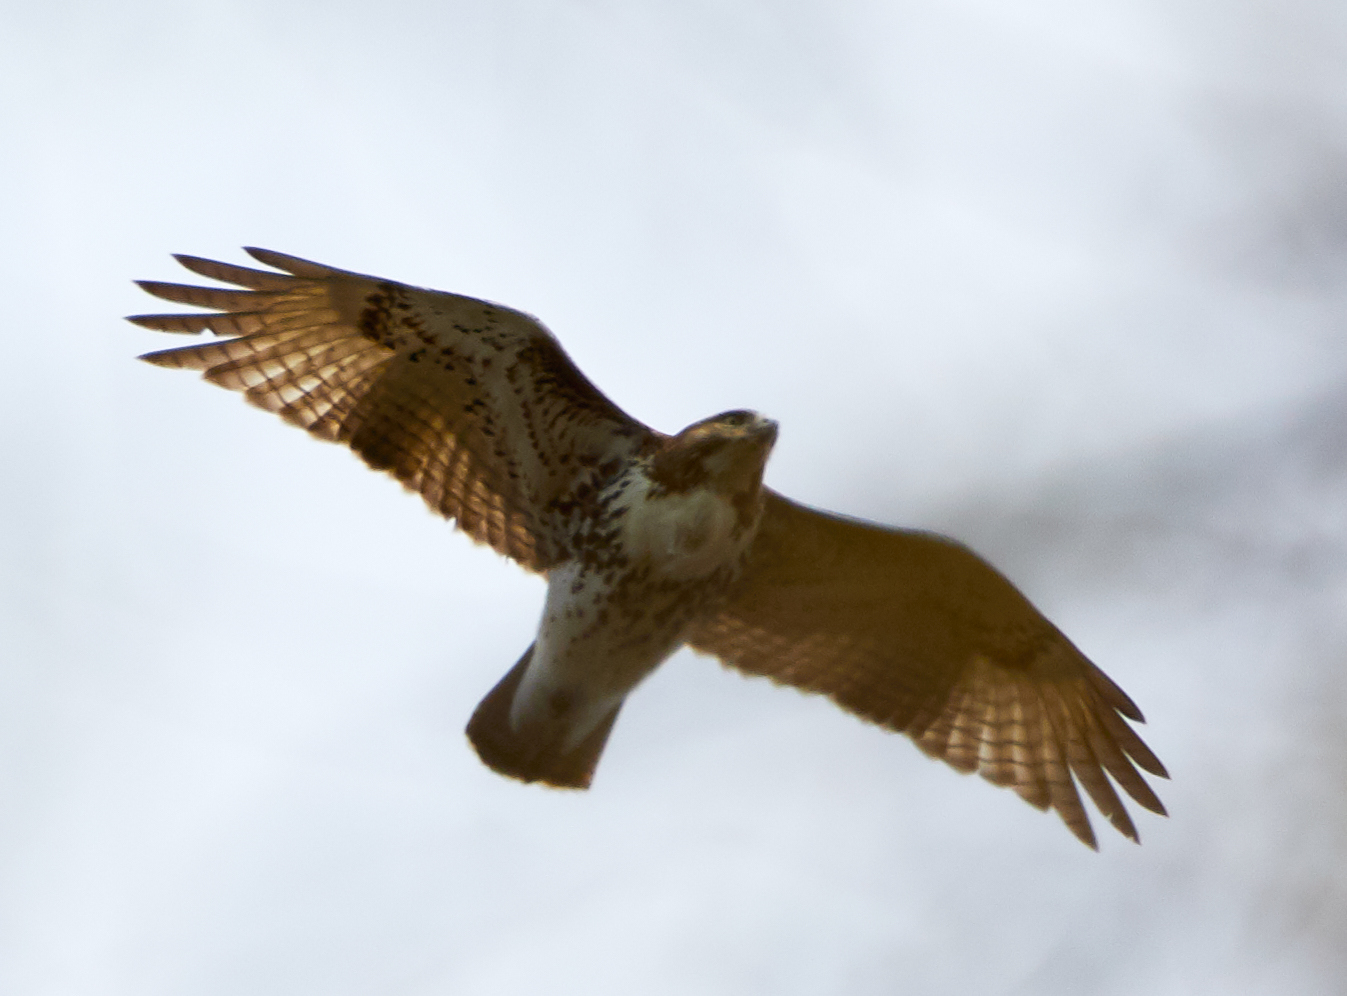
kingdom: Animalia
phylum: Chordata
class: Aves
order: Accipitriformes
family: Accipitridae
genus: Buteo
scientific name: Buteo jamaicensis
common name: Red-tailed hawk
